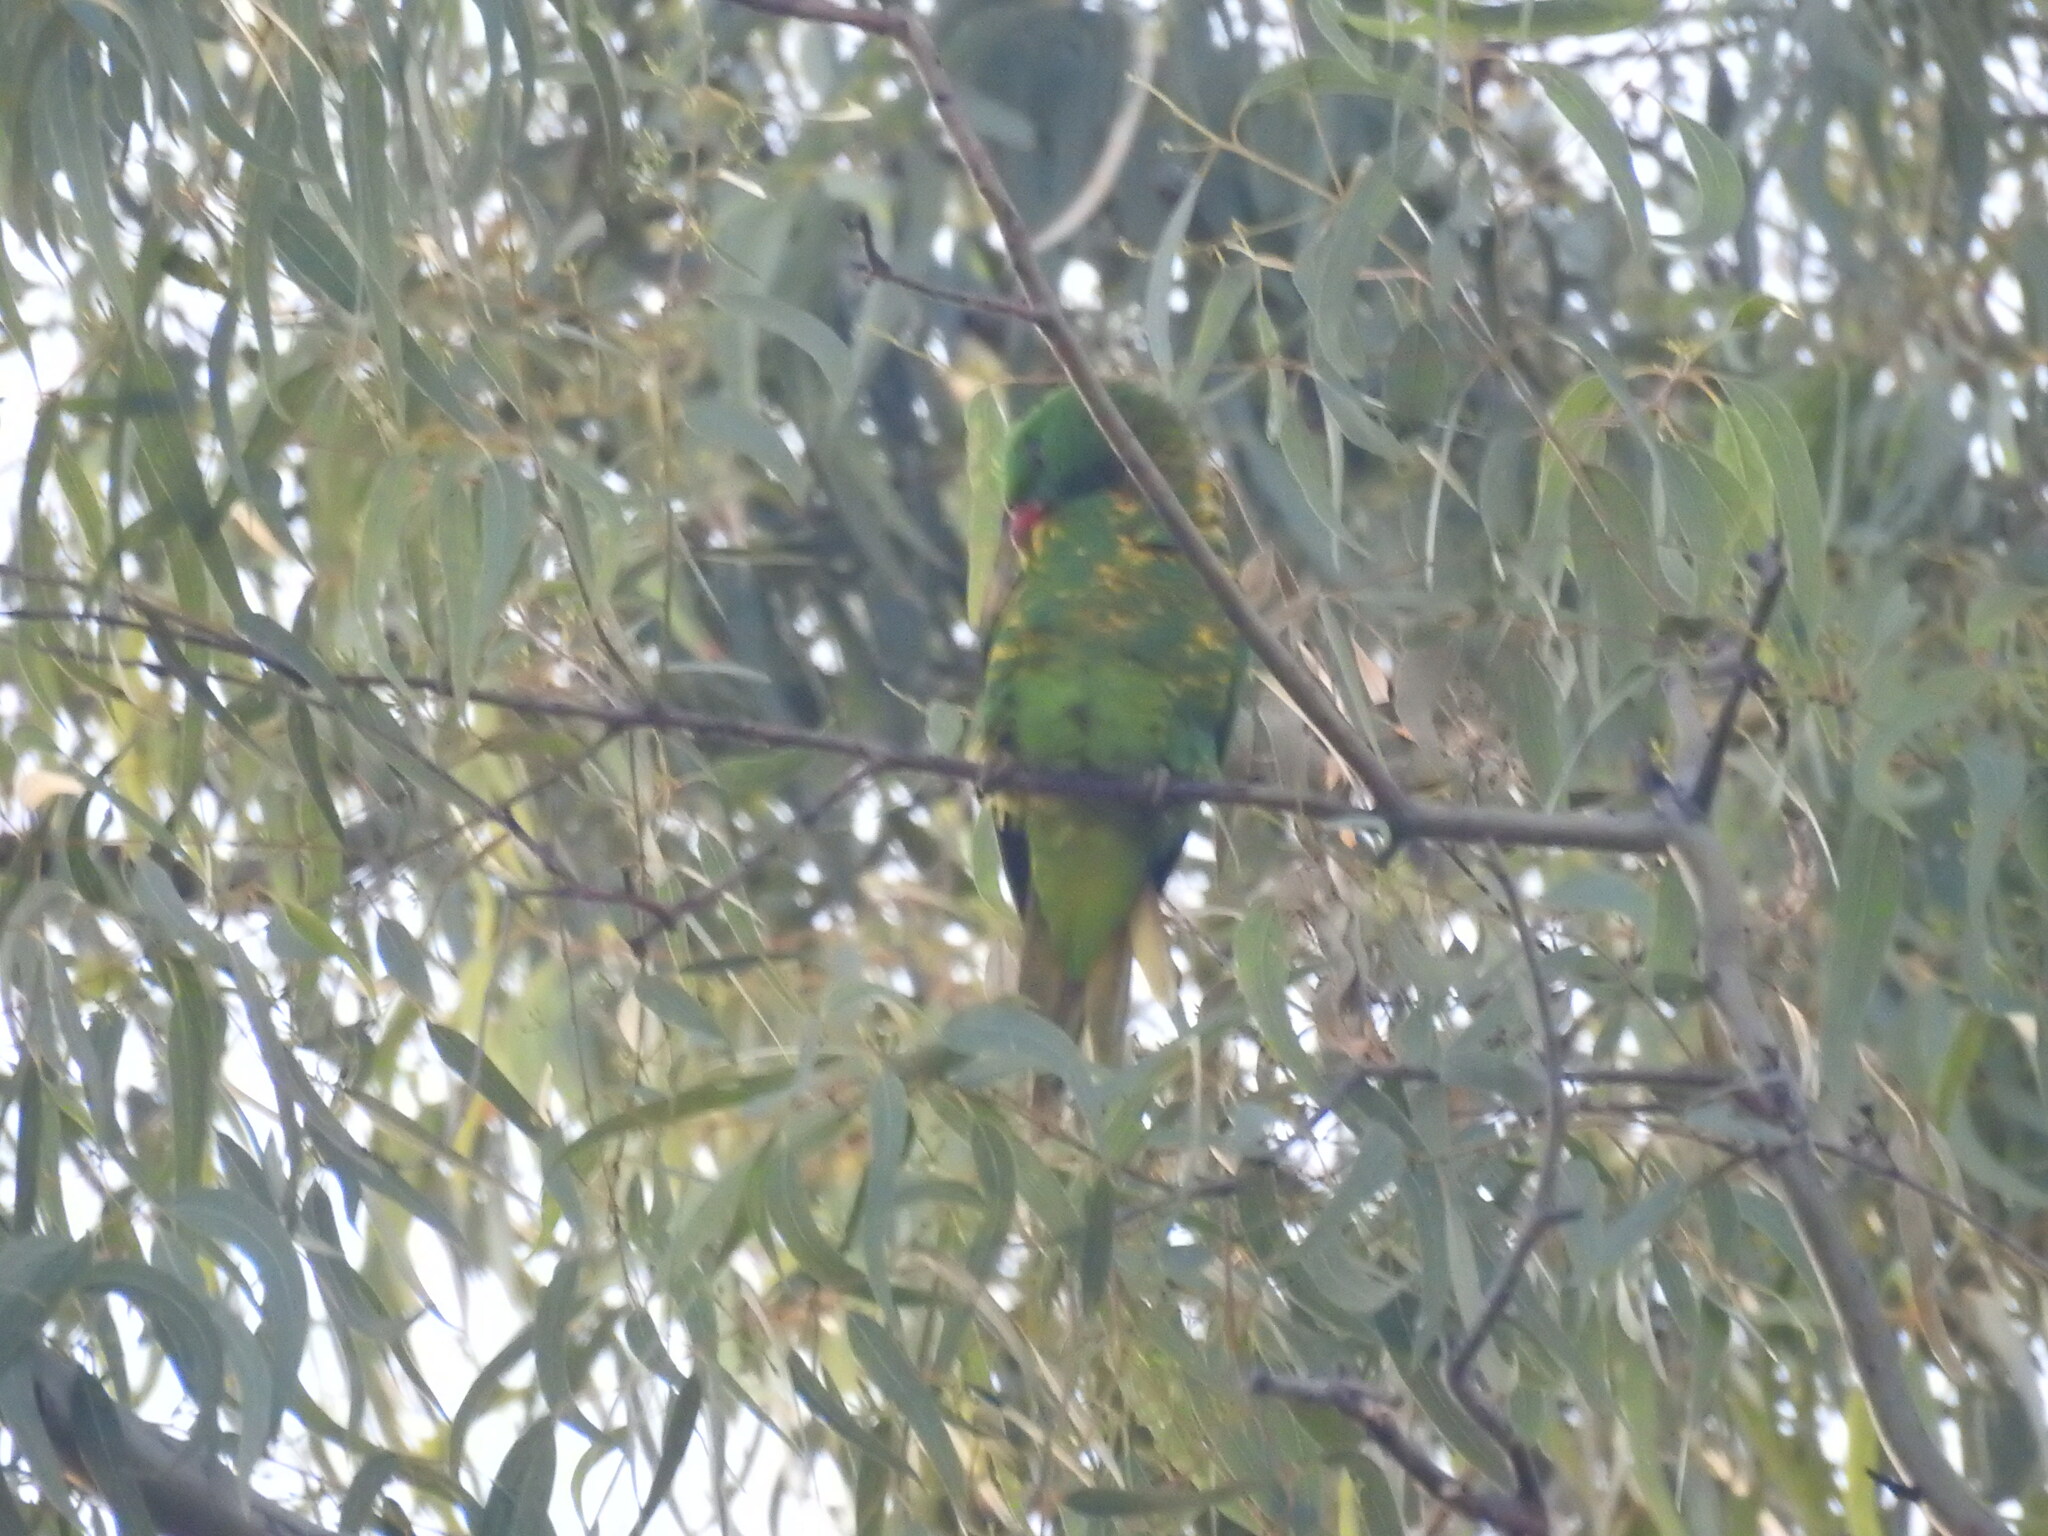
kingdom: Animalia
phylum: Chordata
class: Aves
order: Psittaciformes
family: Psittacidae
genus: Trichoglossus
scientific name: Trichoglossus chlorolepidotus
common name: Scaly-breasted lorikeet
